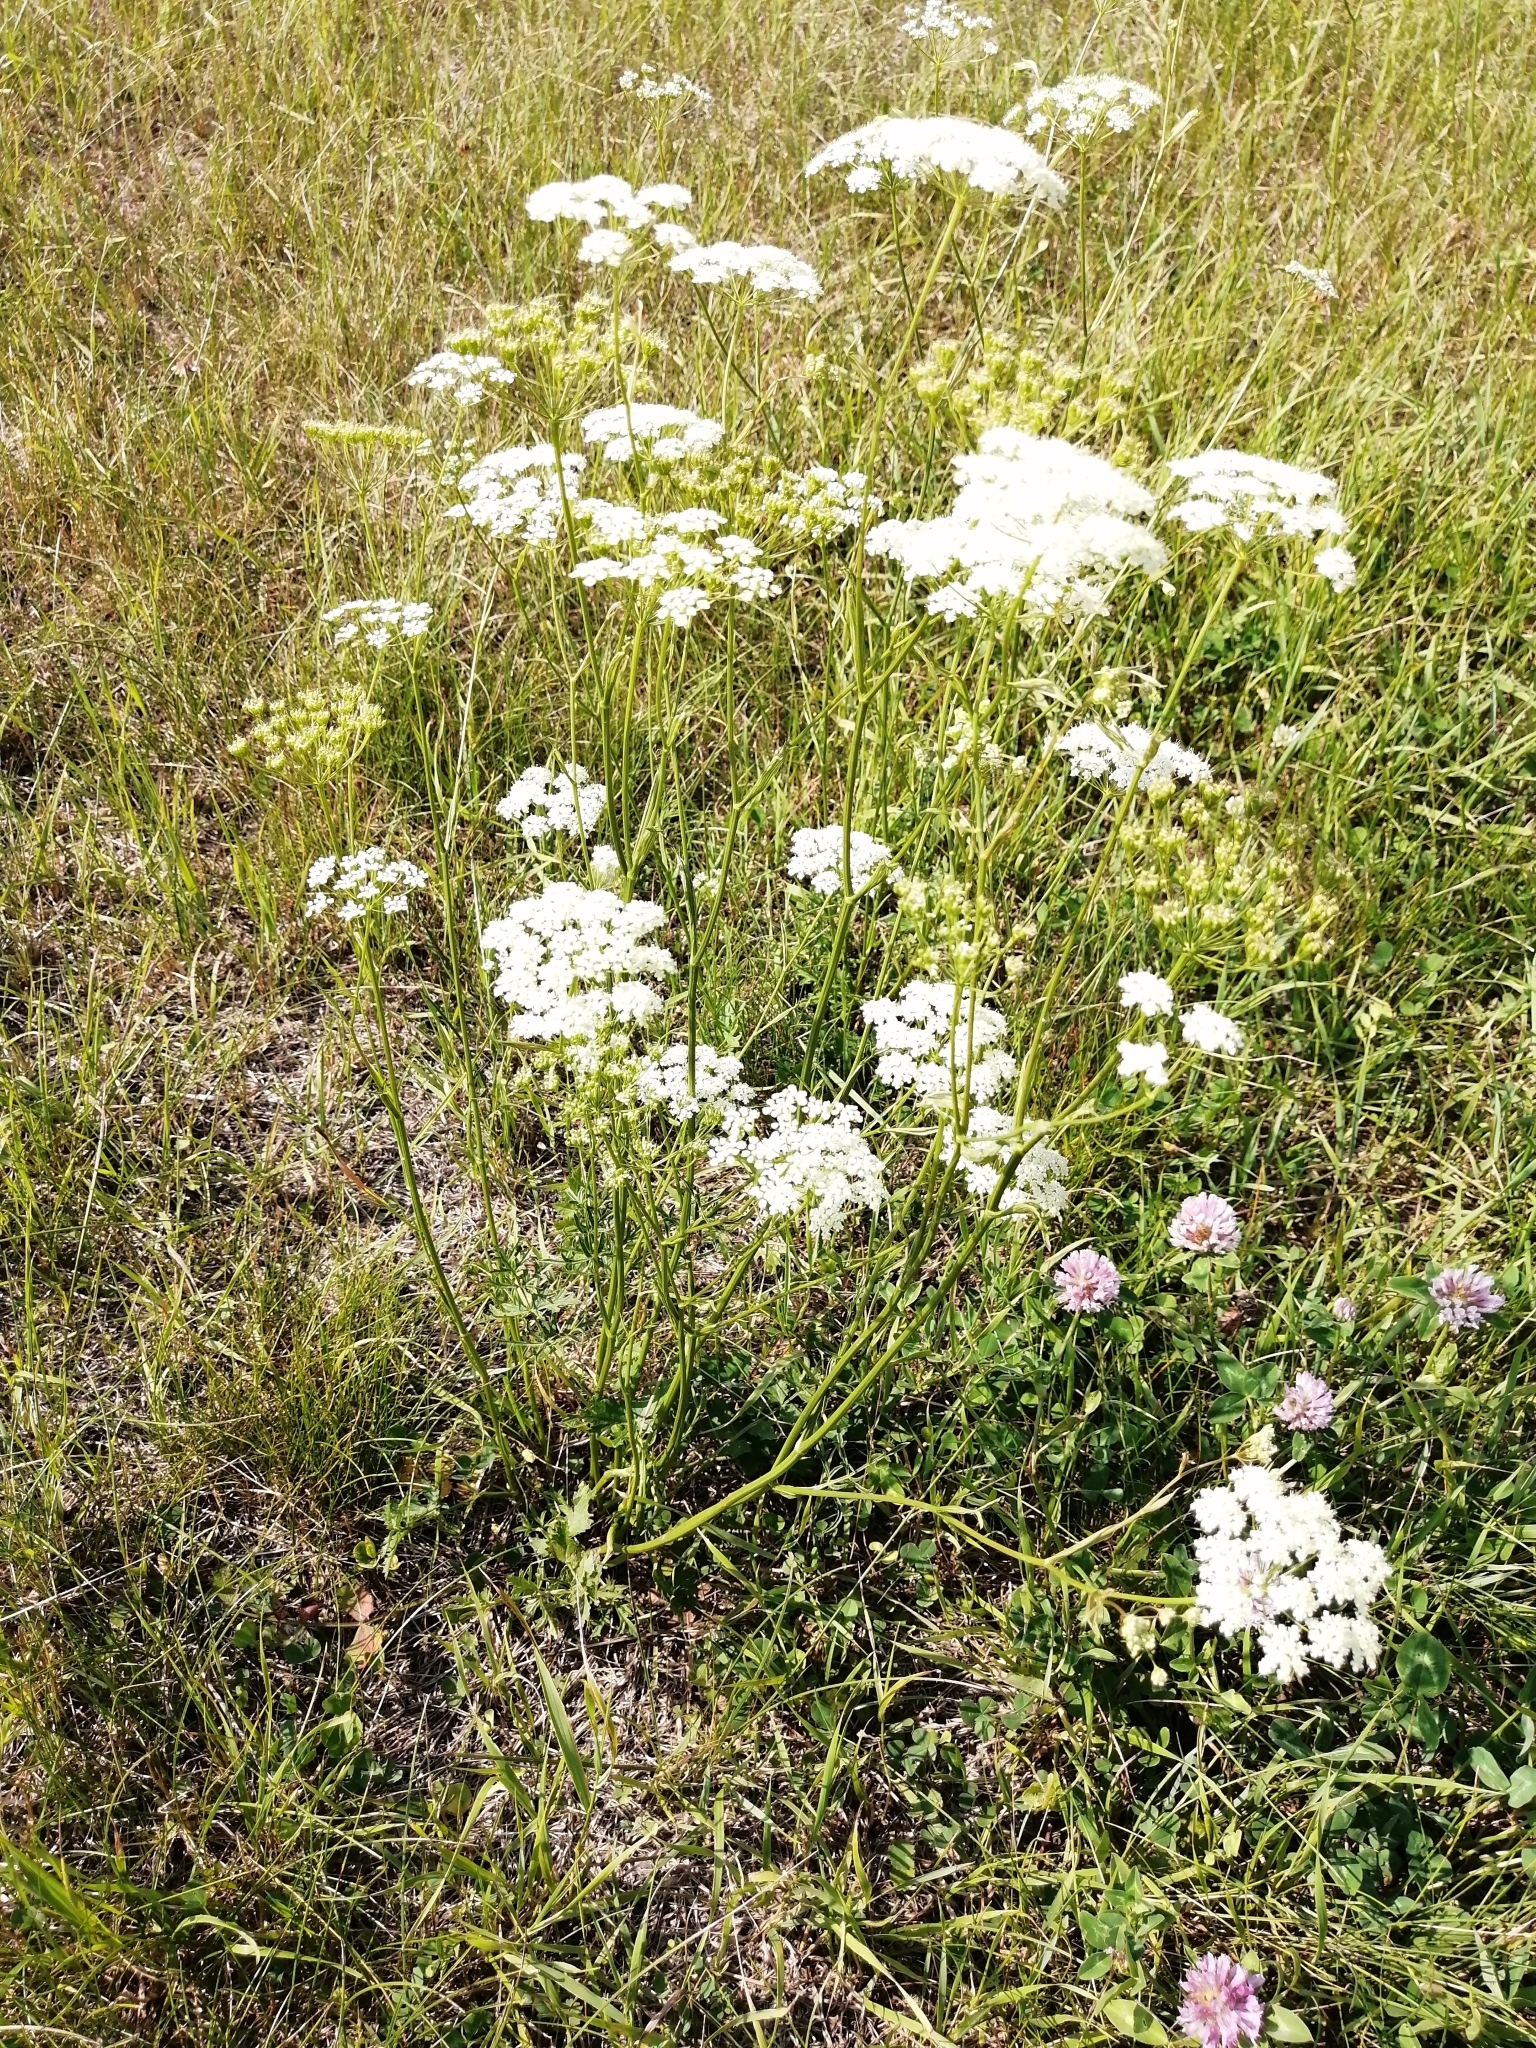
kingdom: Plantae
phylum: Tracheophyta
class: Magnoliopsida
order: Apiales
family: Apiaceae
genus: Pimpinella
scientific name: Pimpinella saxifraga
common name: Burnet-saxifrage
